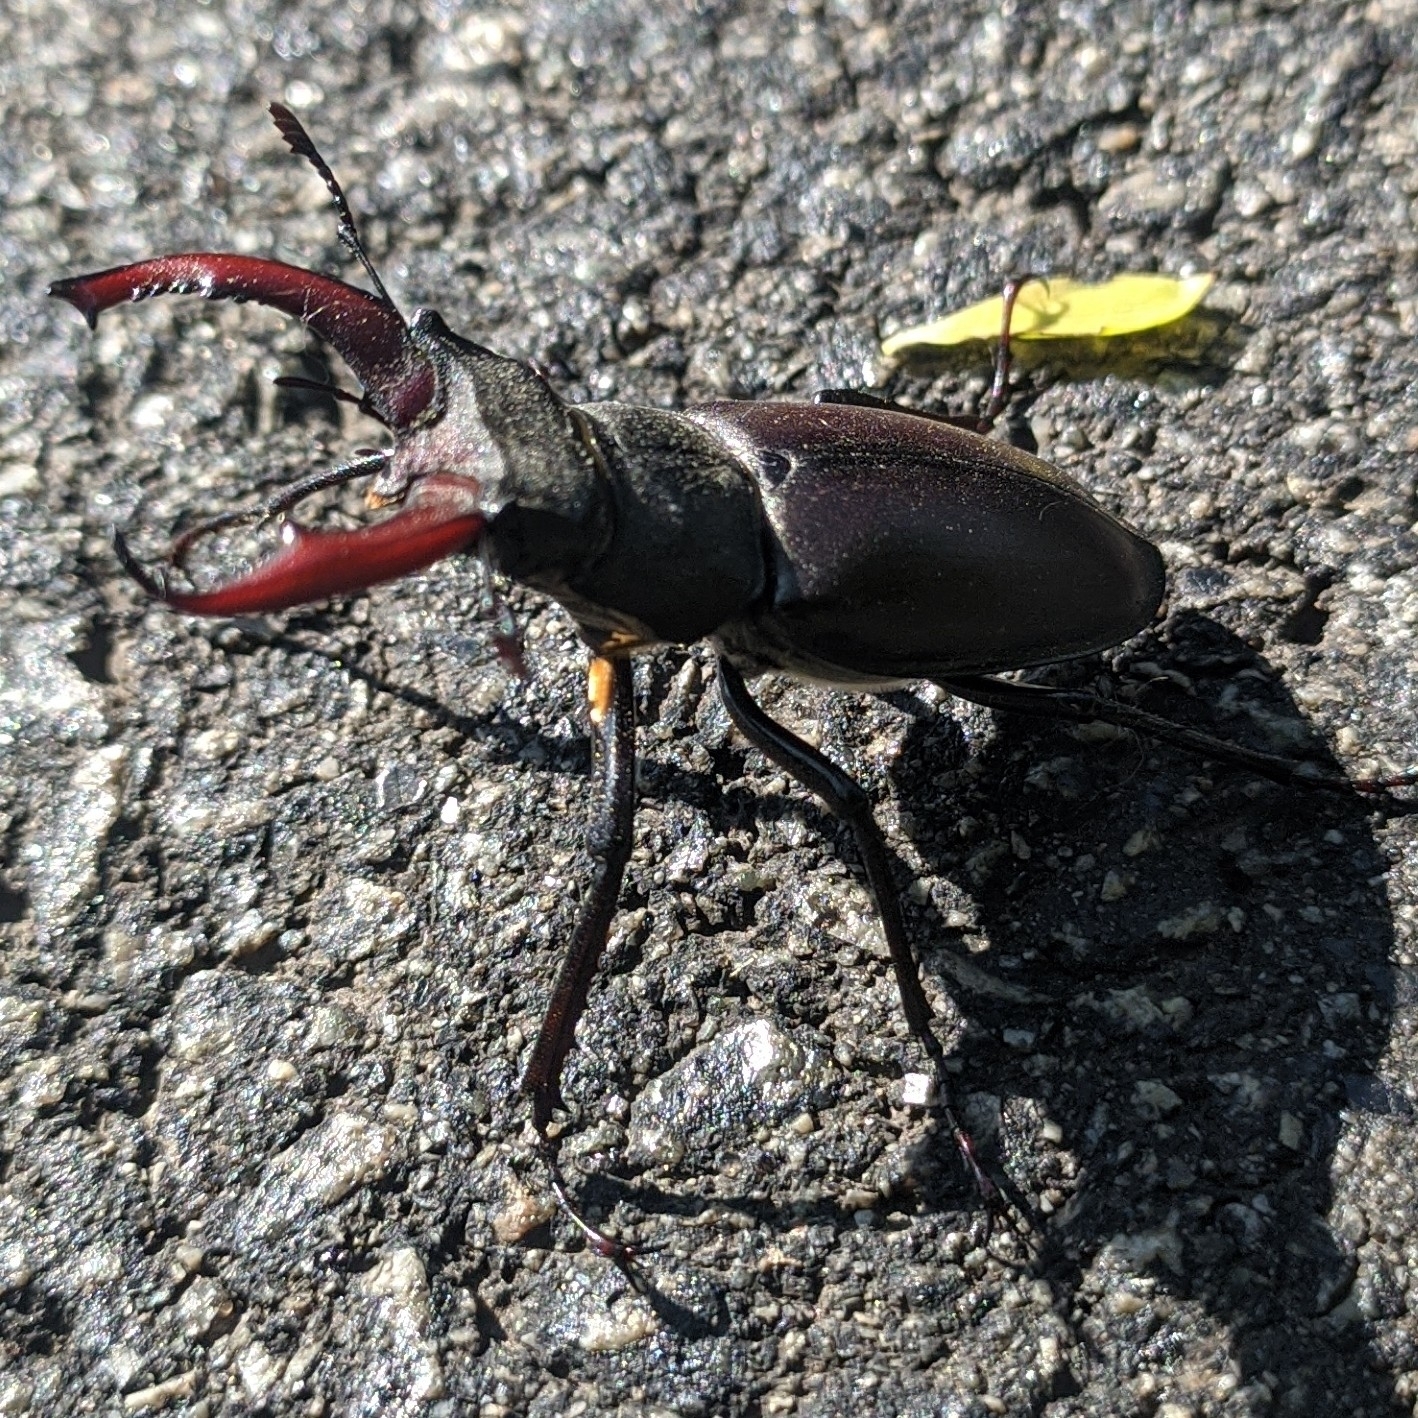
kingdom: Animalia
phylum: Arthropoda
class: Insecta
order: Coleoptera
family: Lucanidae
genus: Lucanus
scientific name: Lucanus cervus
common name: Stag beetle
